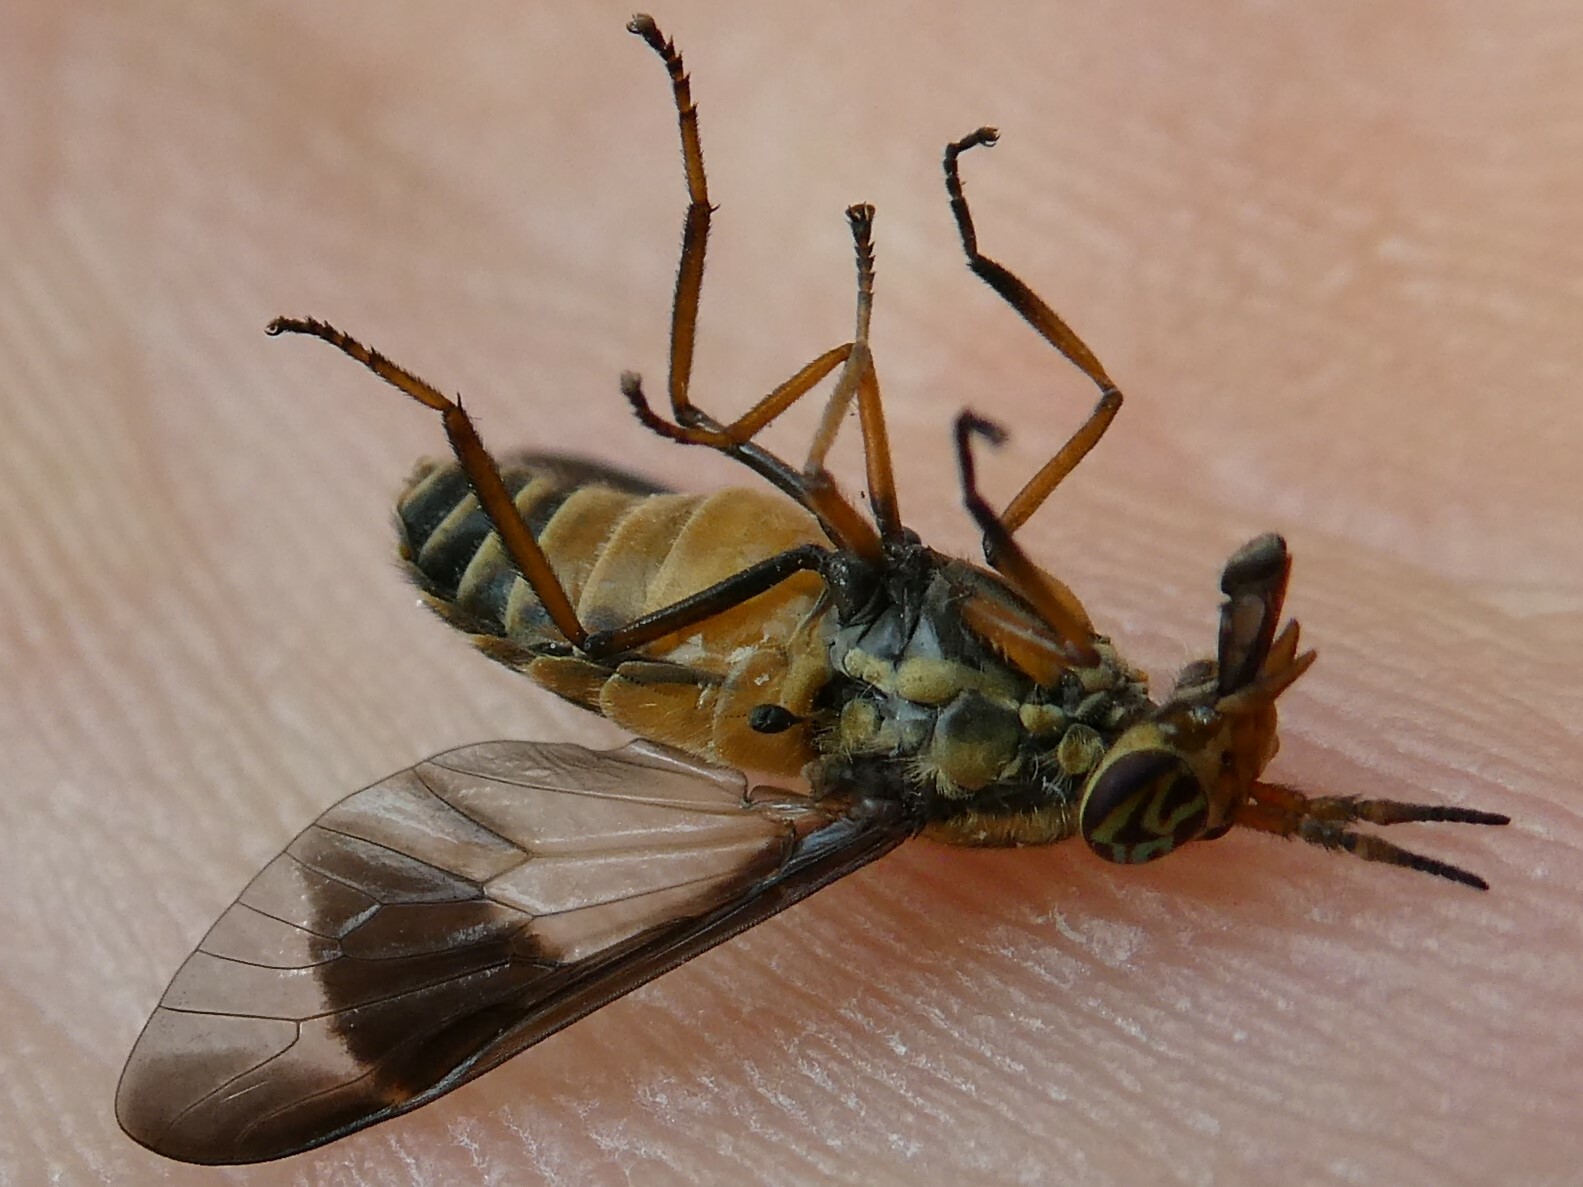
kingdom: Animalia
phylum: Arthropoda
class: Insecta
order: Diptera
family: Tabanidae
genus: Chrysops
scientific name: Chrysops montanus
